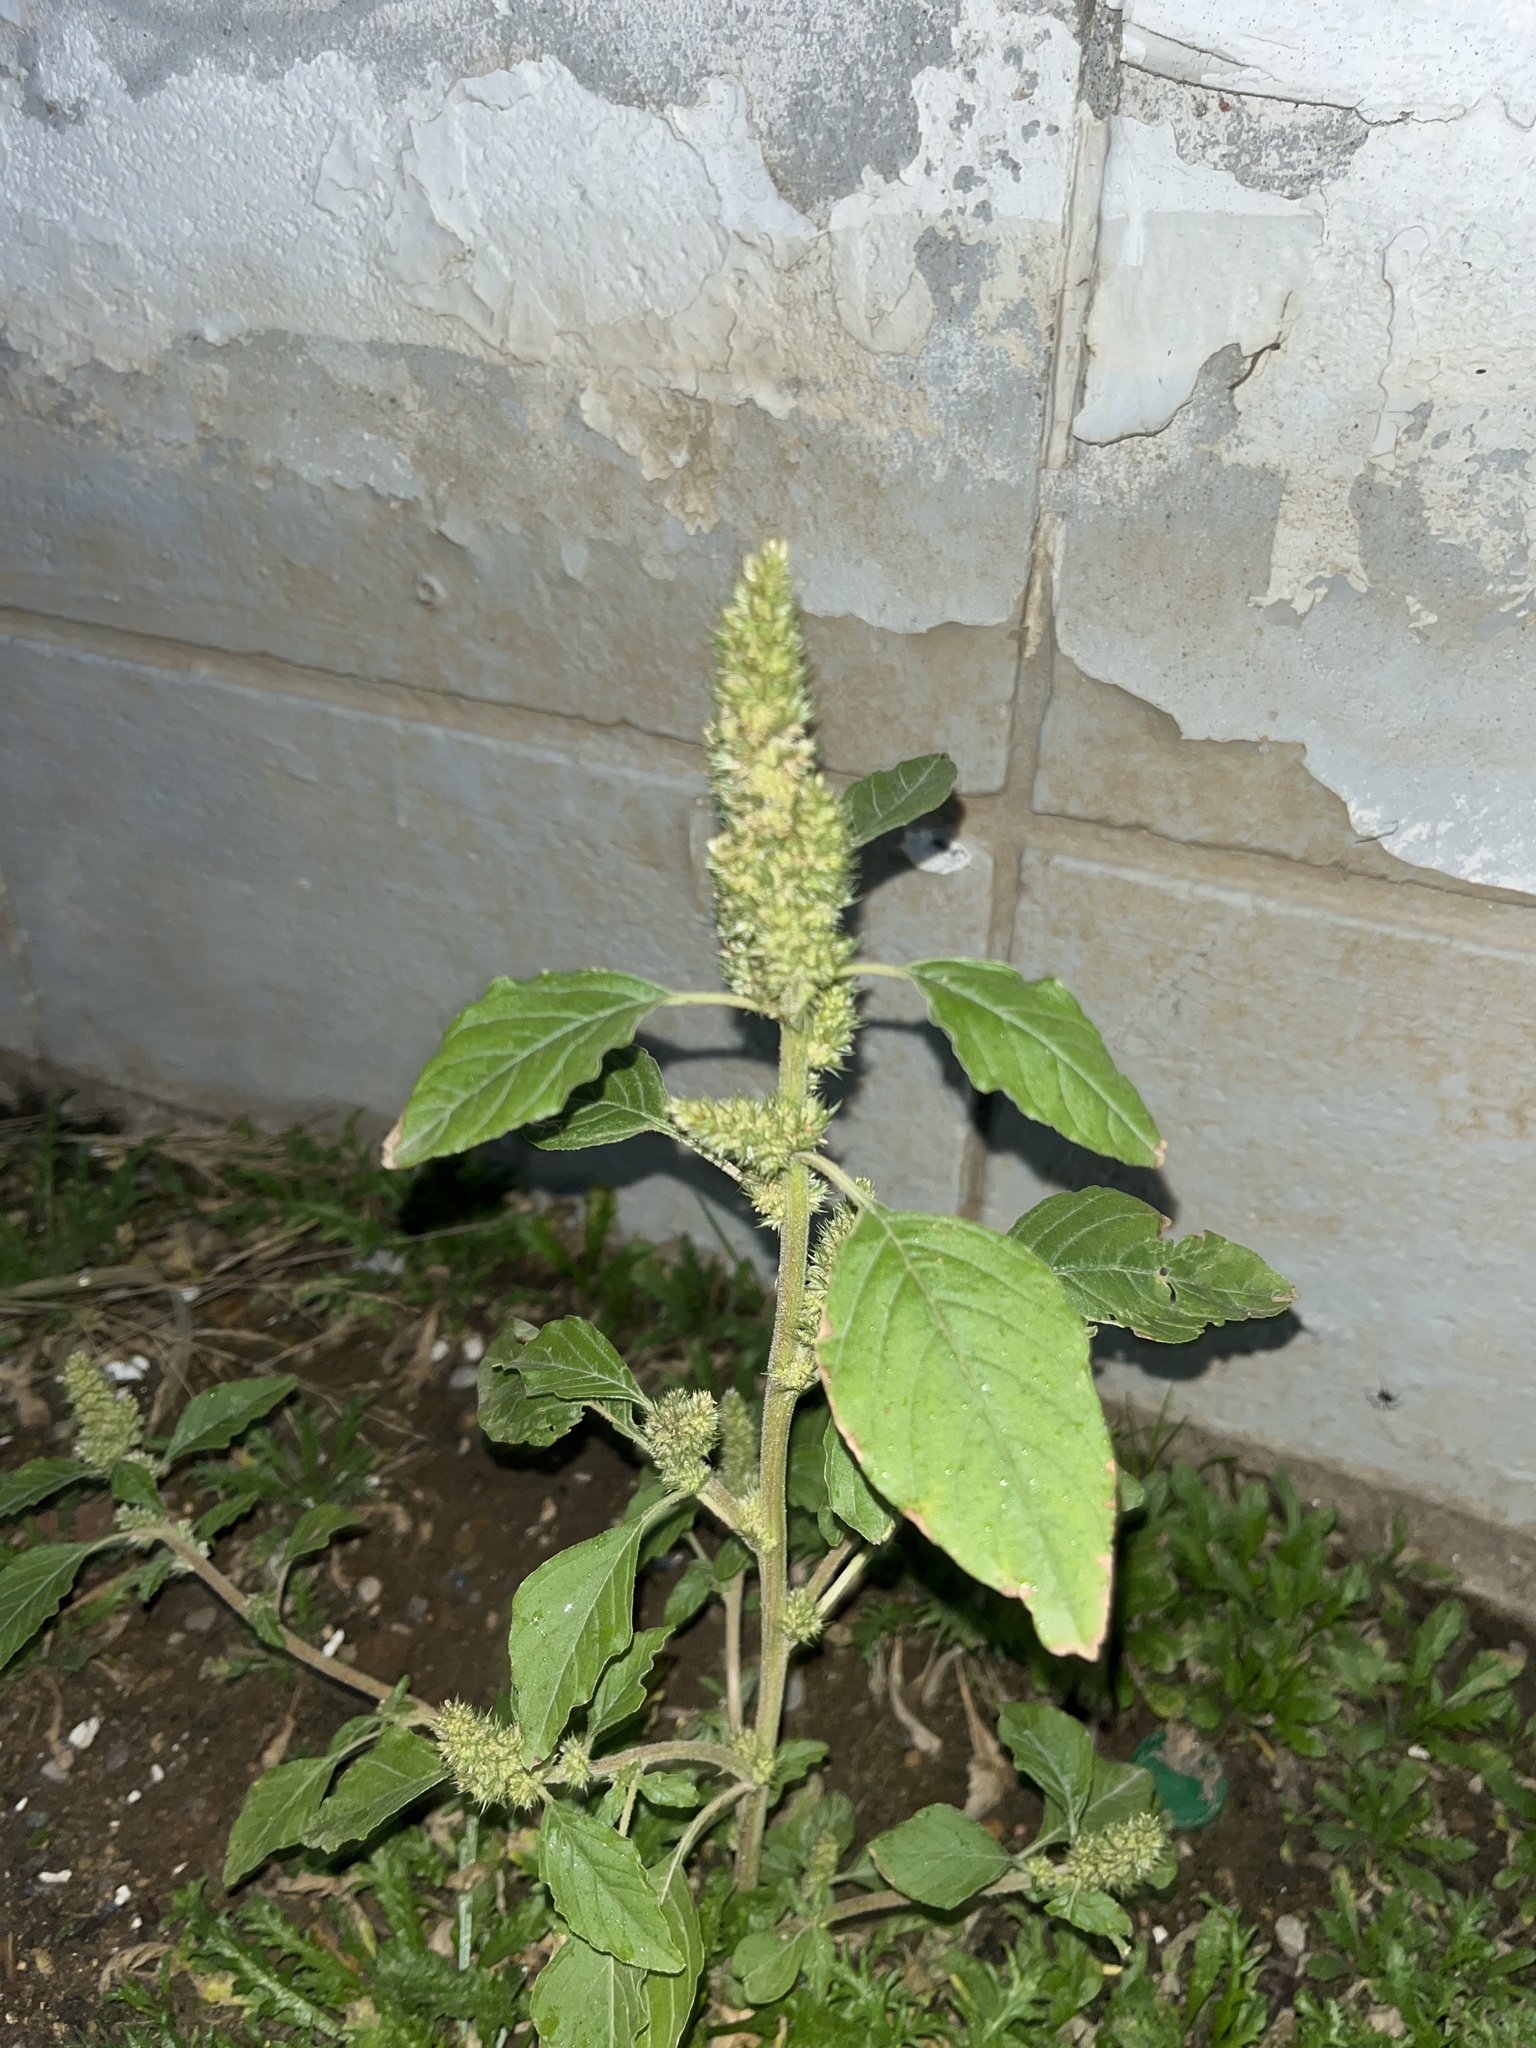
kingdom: Plantae
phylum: Tracheophyta
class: Magnoliopsida
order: Caryophyllales
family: Amaranthaceae
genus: Amaranthus
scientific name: Amaranthus retroflexus
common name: Redroot amaranth
